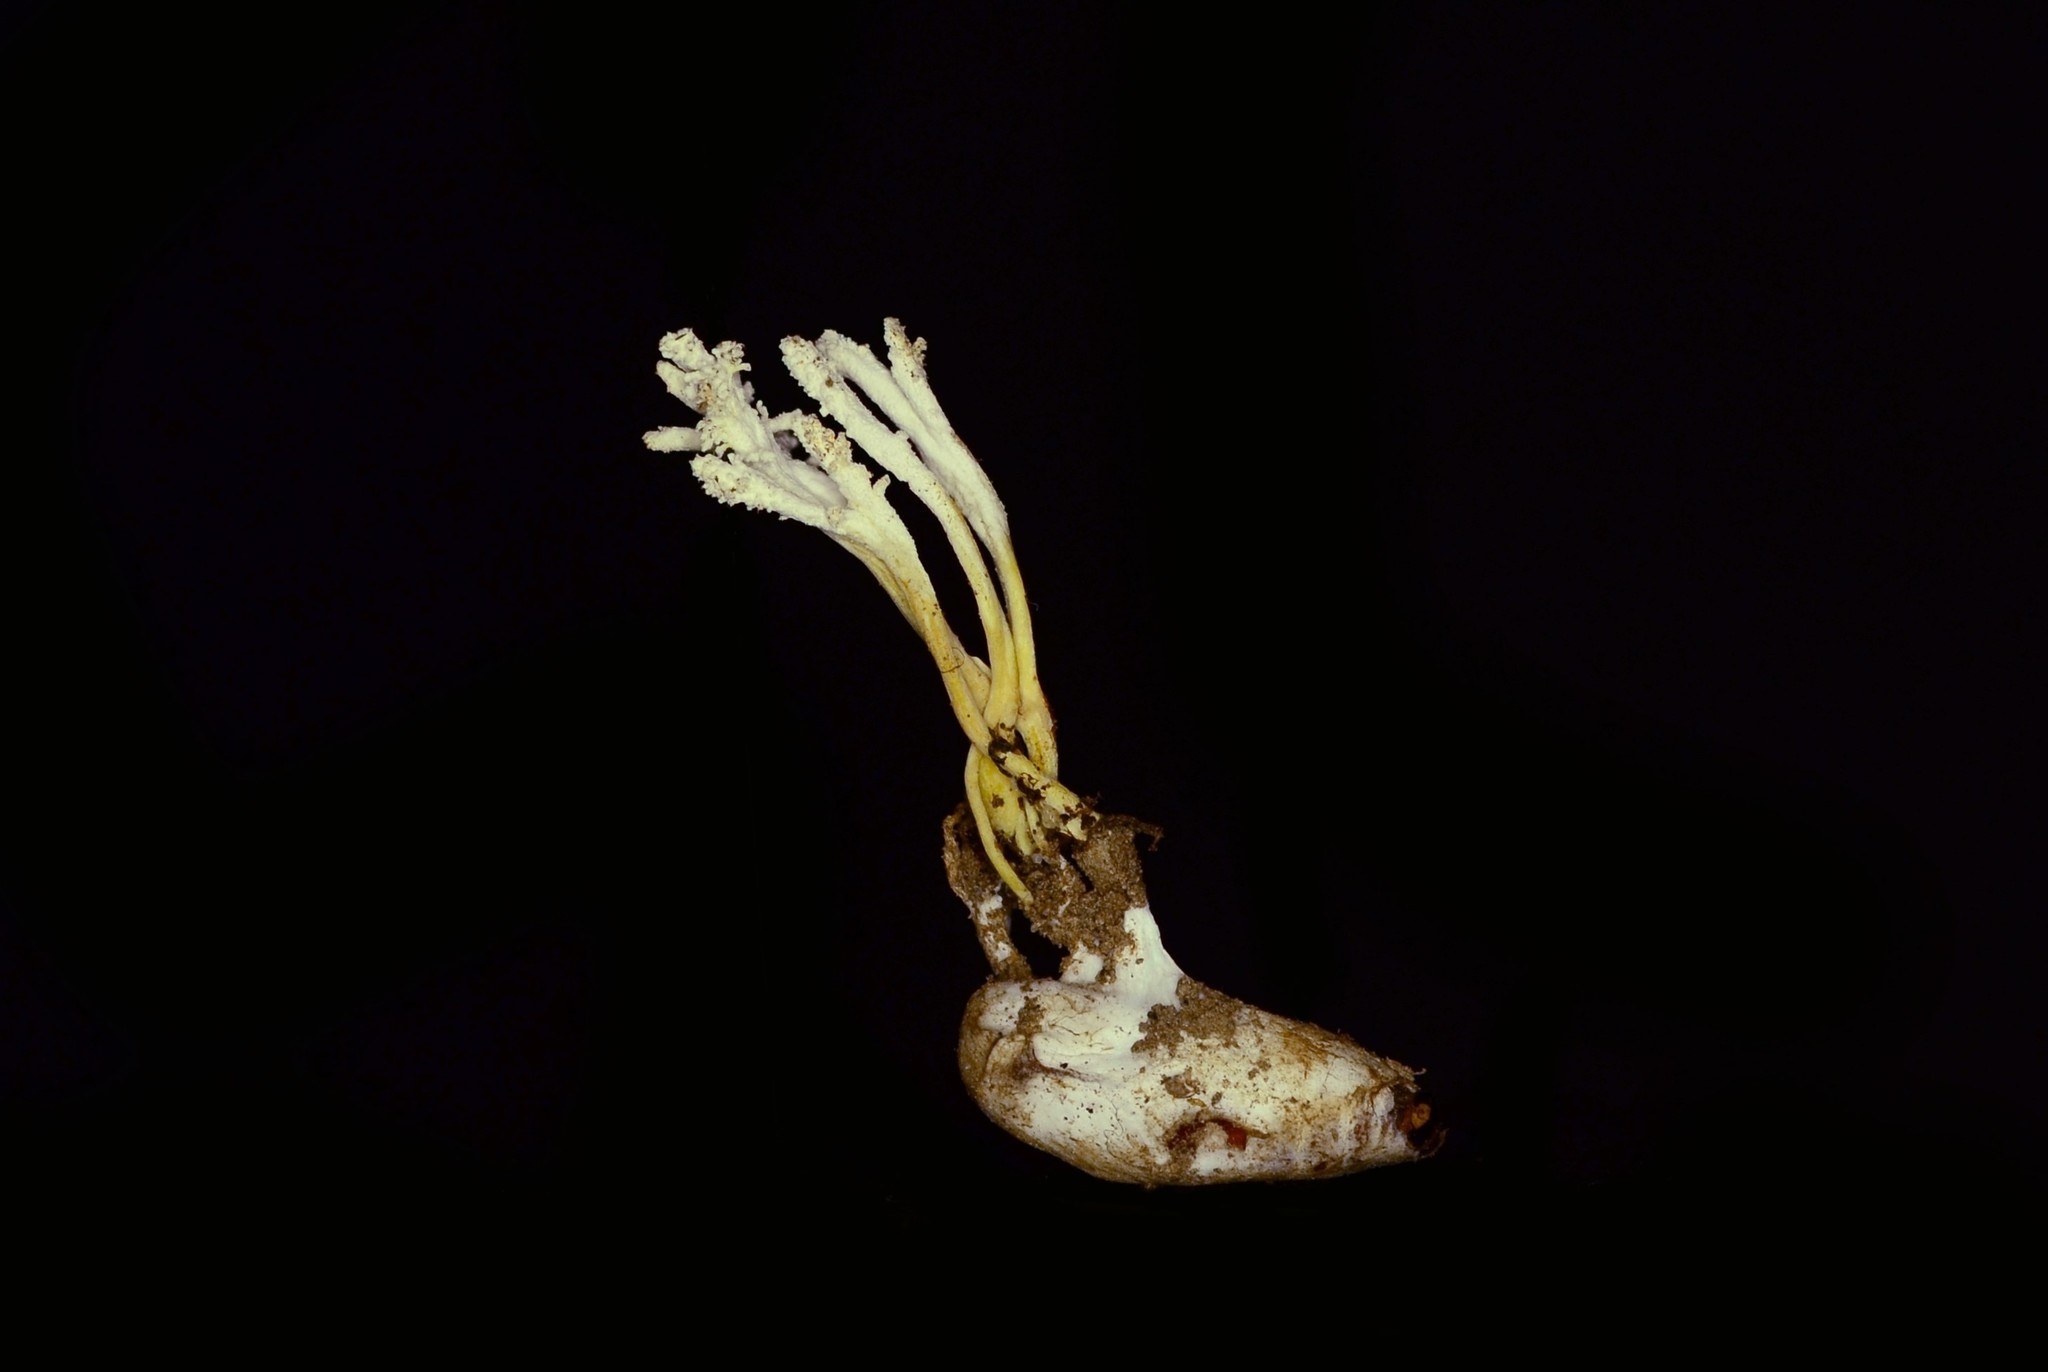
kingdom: Fungi
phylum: Ascomycota
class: Sordariomycetes
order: Hypocreales
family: Cordycipitaceae
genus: Cordyceps
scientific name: Cordyceps tenuipes
